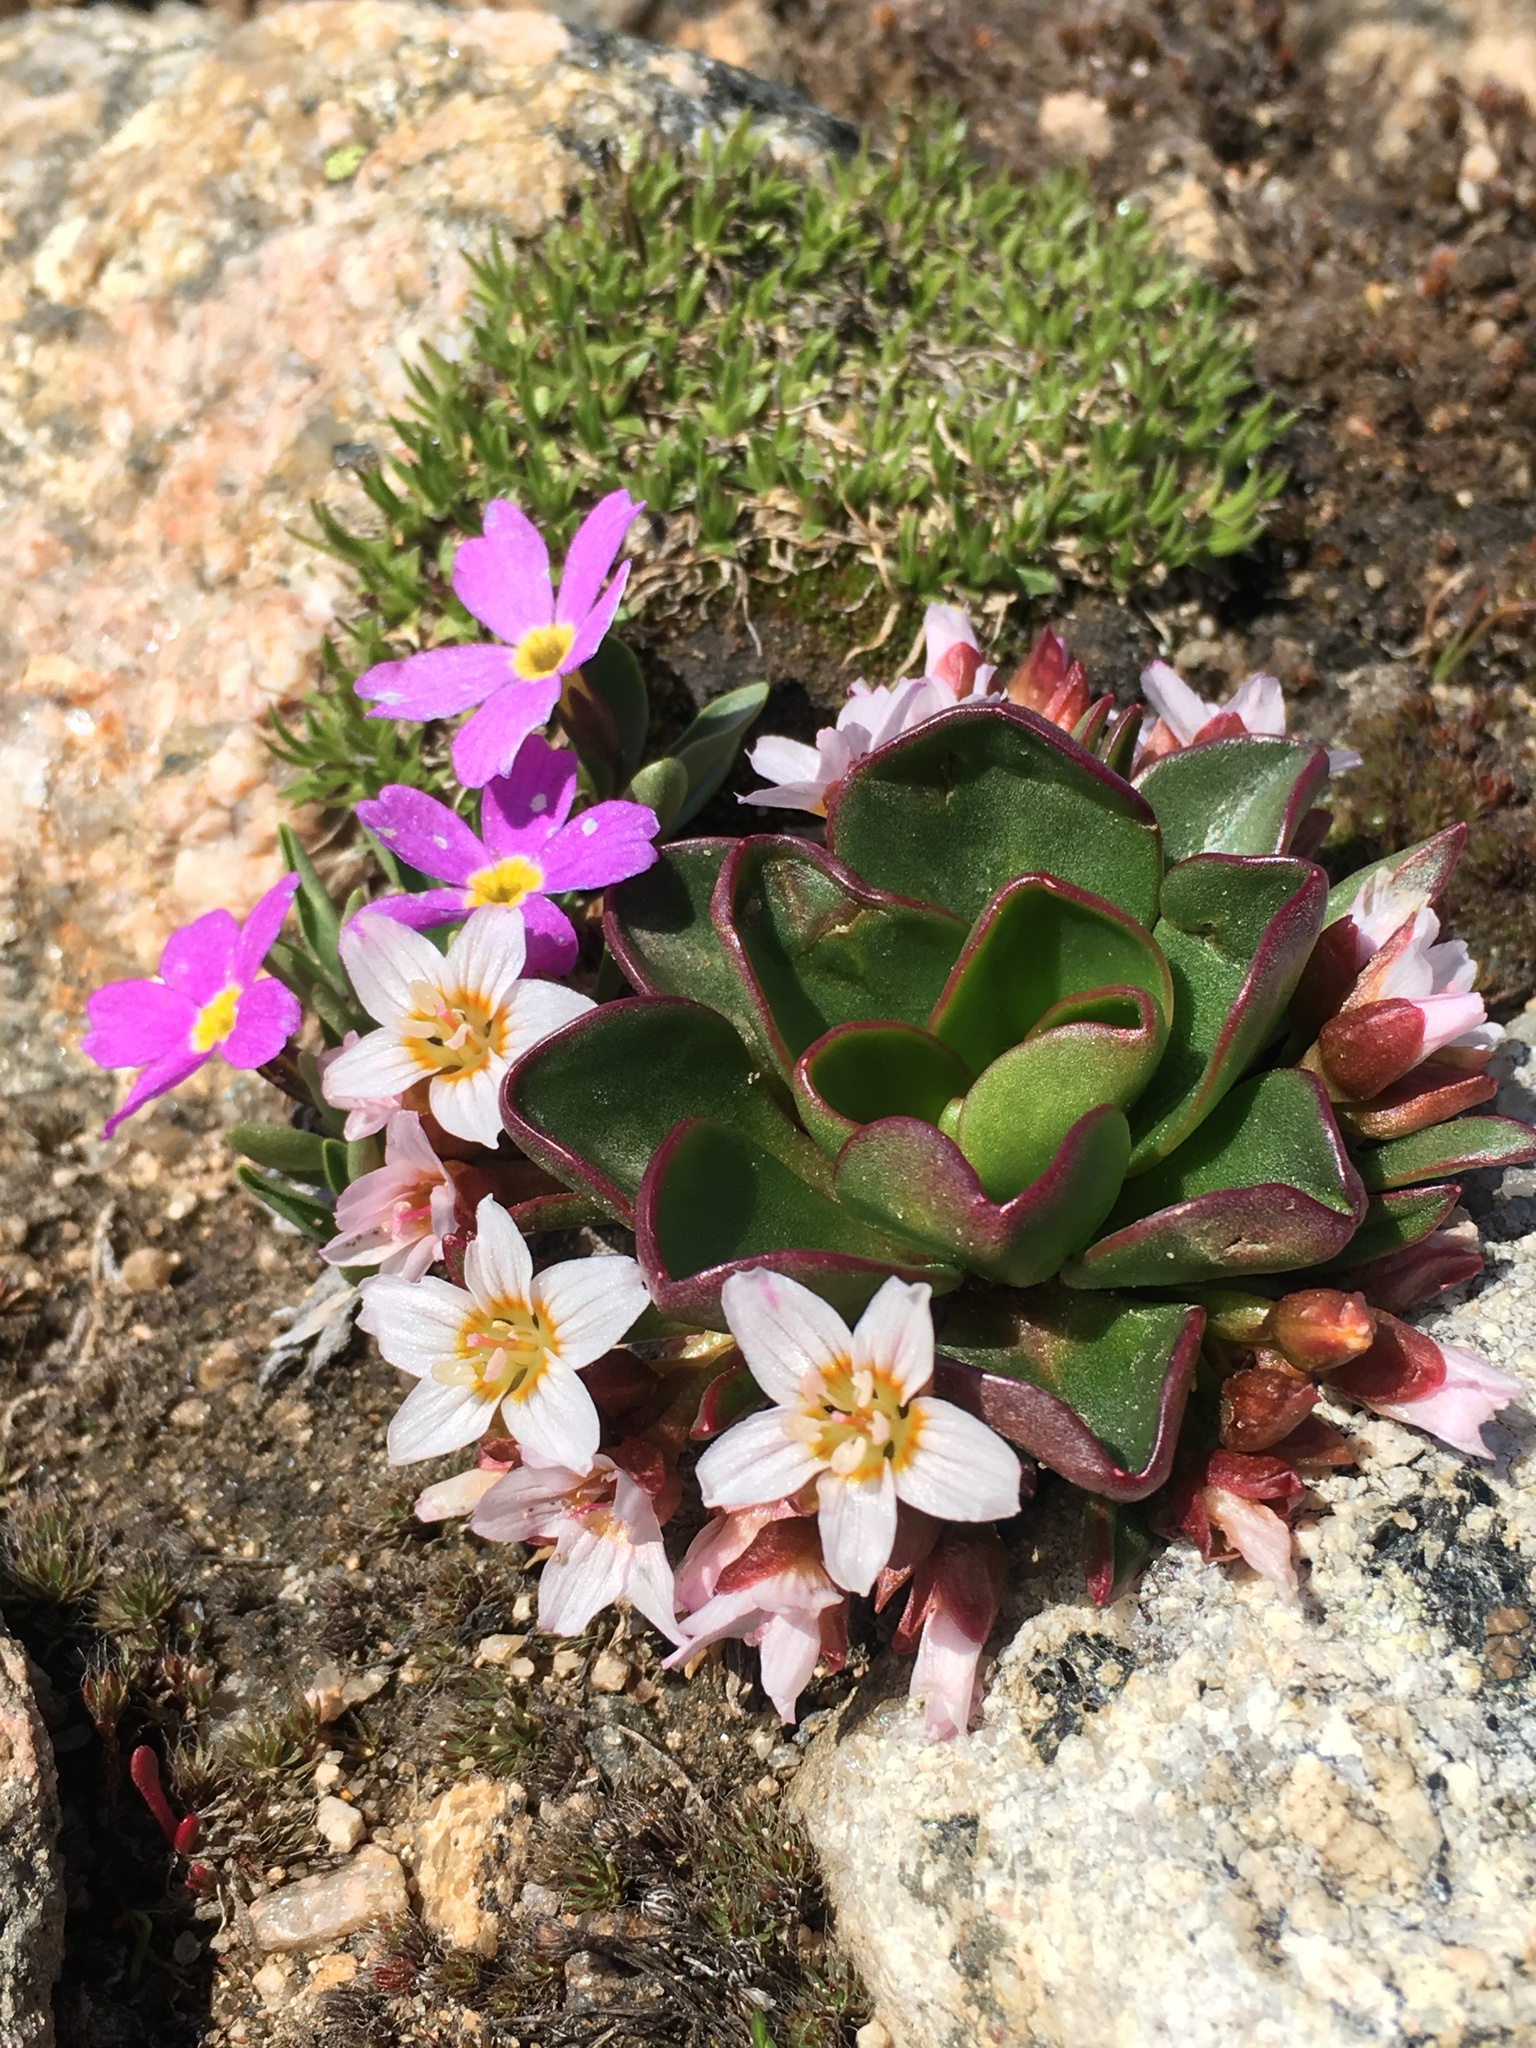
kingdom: Plantae
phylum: Tracheophyta
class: Magnoliopsida
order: Caryophyllales
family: Montiaceae
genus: Claytonia
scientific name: Claytonia megarhiza
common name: Alpine spring beauty
